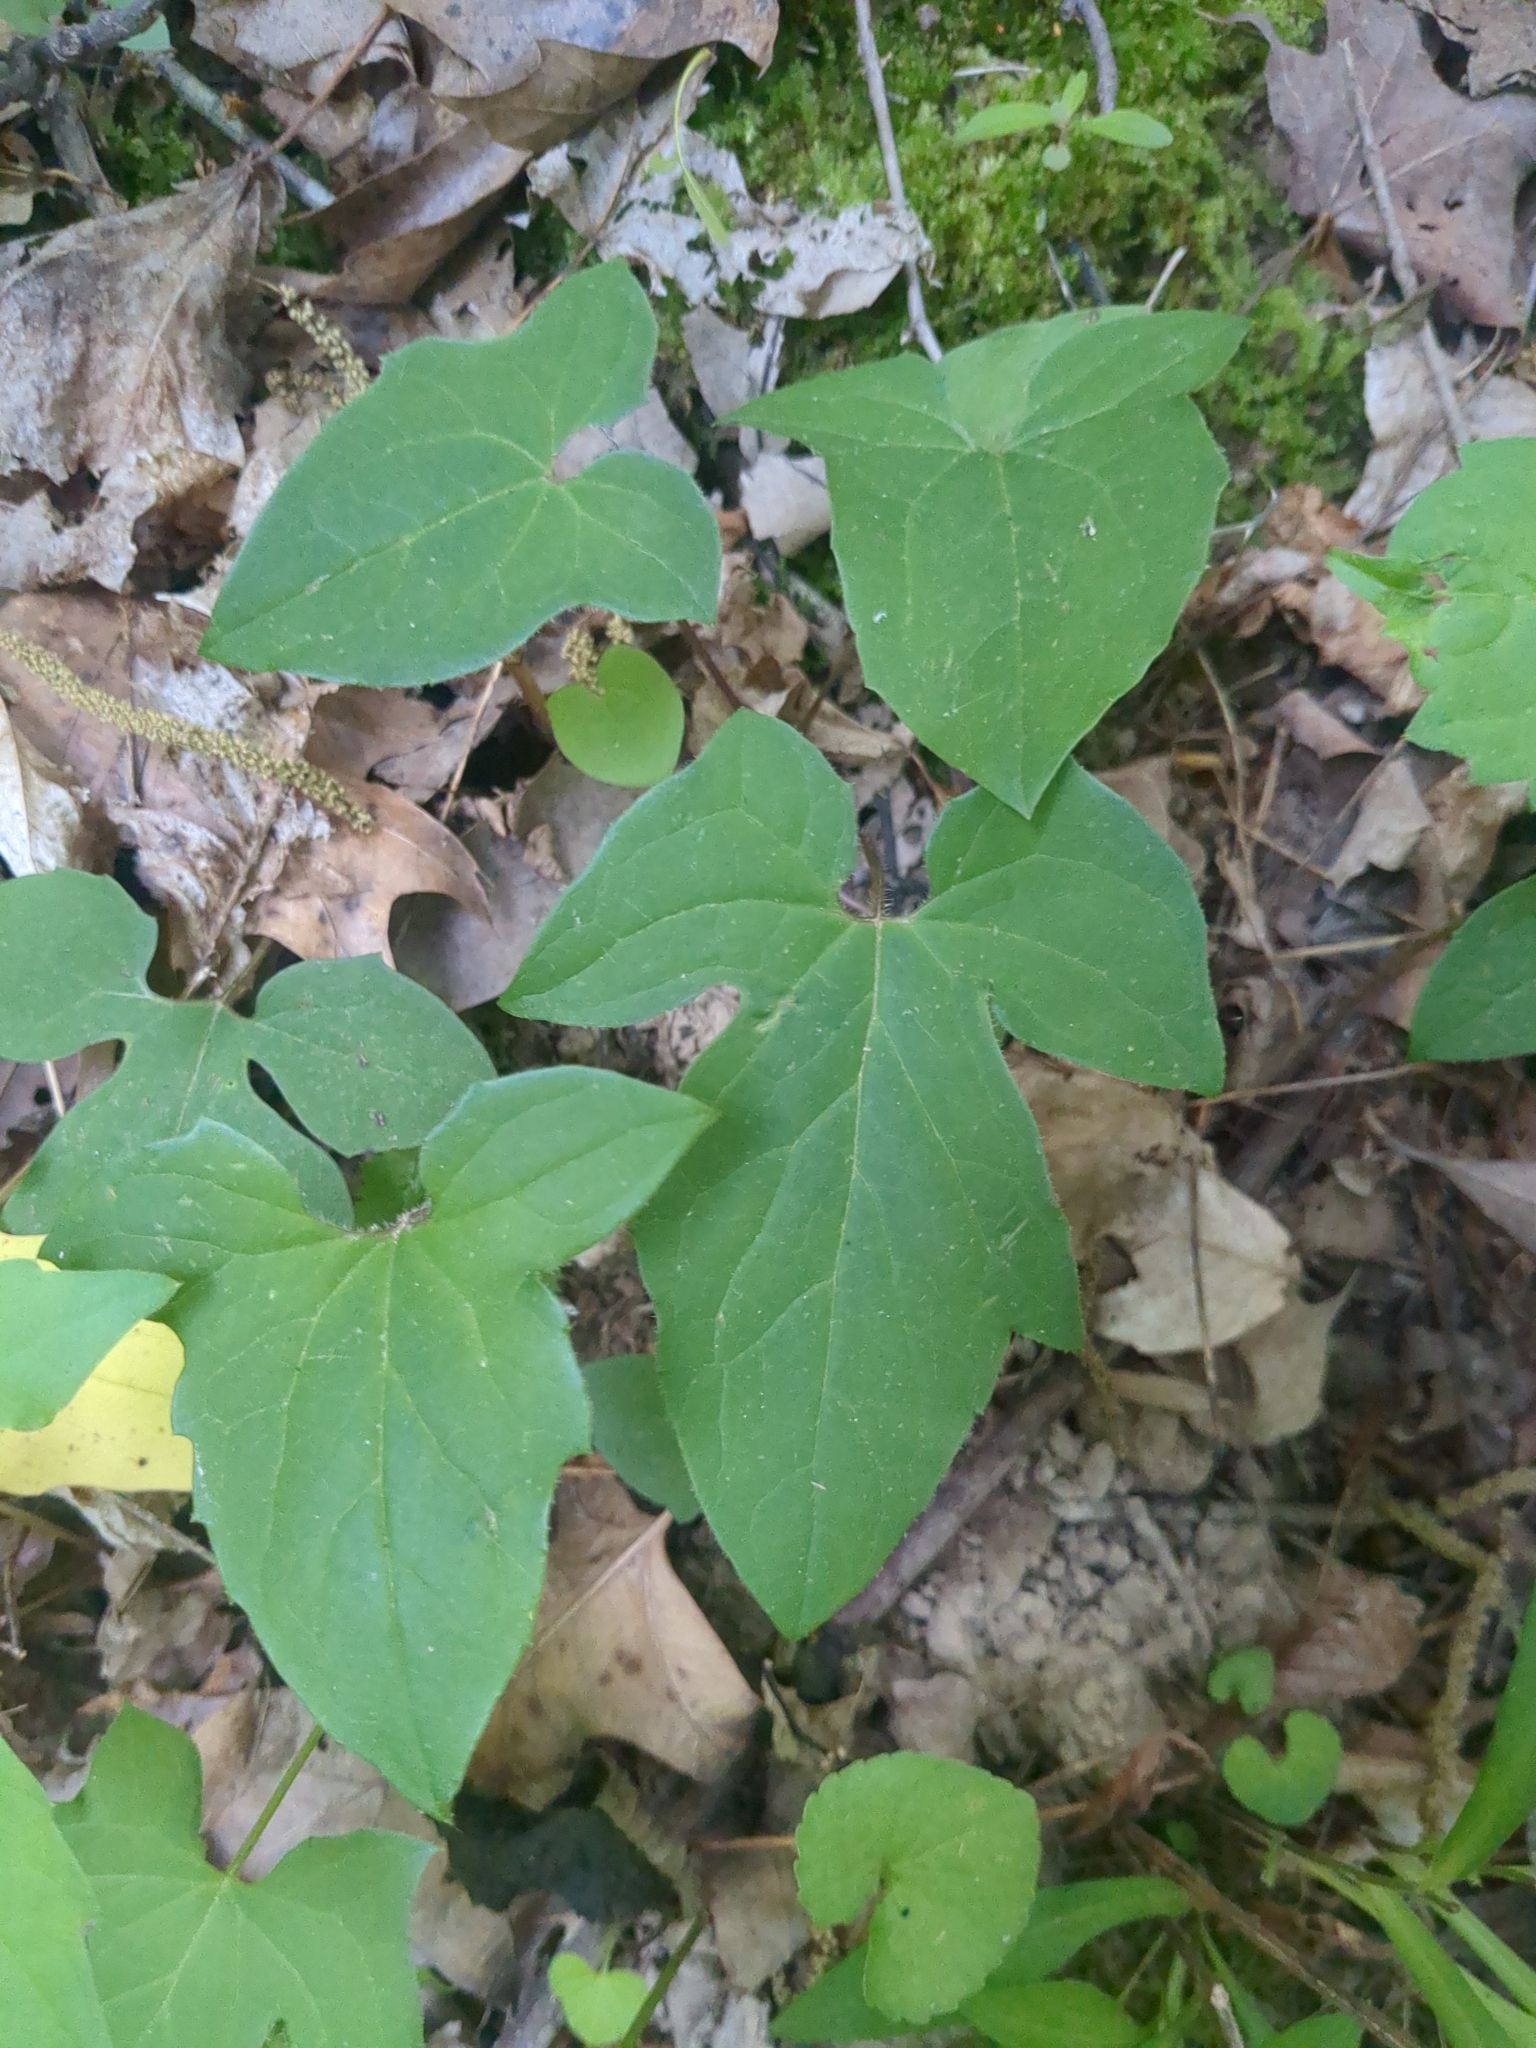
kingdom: Plantae
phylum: Tracheophyta
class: Magnoliopsida
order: Asterales
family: Asteraceae
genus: Nabalus
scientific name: Nabalus altissima
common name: Tall rattlesnakeroot
